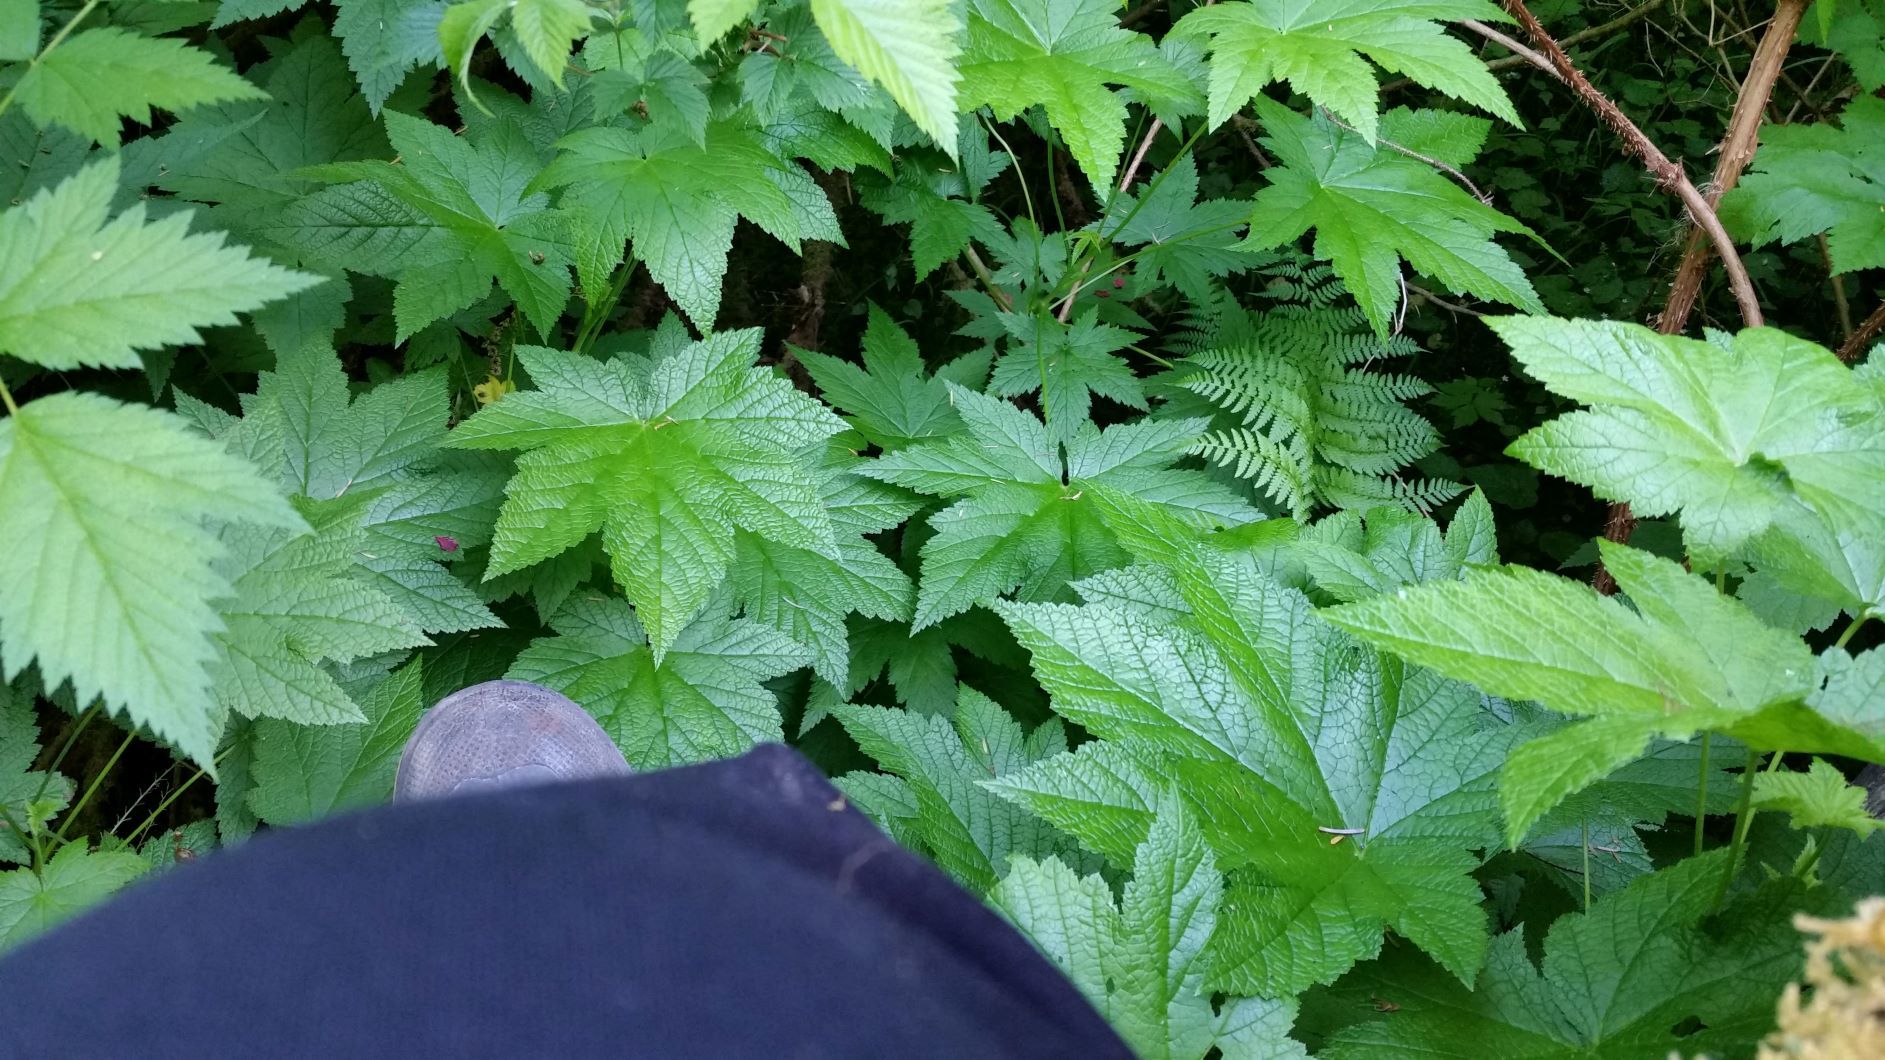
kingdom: Plantae
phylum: Tracheophyta
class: Magnoliopsida
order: Saxifragales
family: Grossulariaceae
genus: Ribes
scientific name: Ribes bracteosum
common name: California black currant
